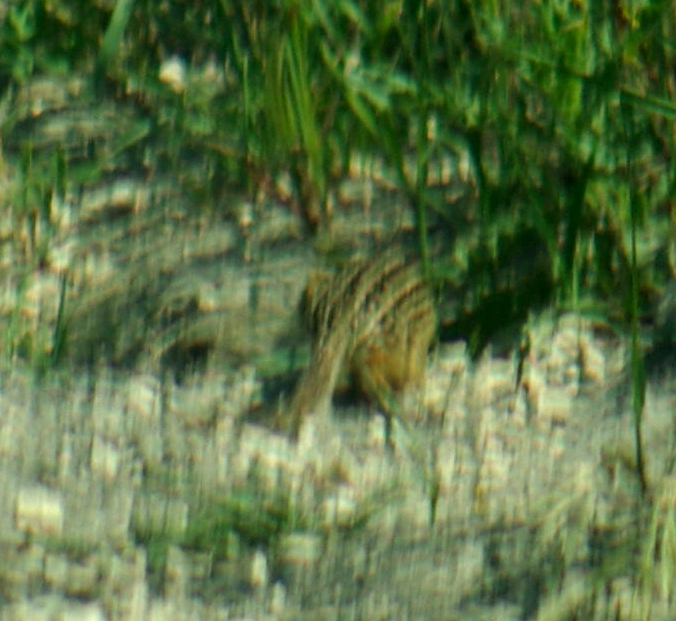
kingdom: Animalia
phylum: Chordata
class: Mammalia
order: Rodentia
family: Sciuridae
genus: Ictidomys
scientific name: Ictidomys tridecemlineatus
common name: Thirteen-lined ground squirrel
